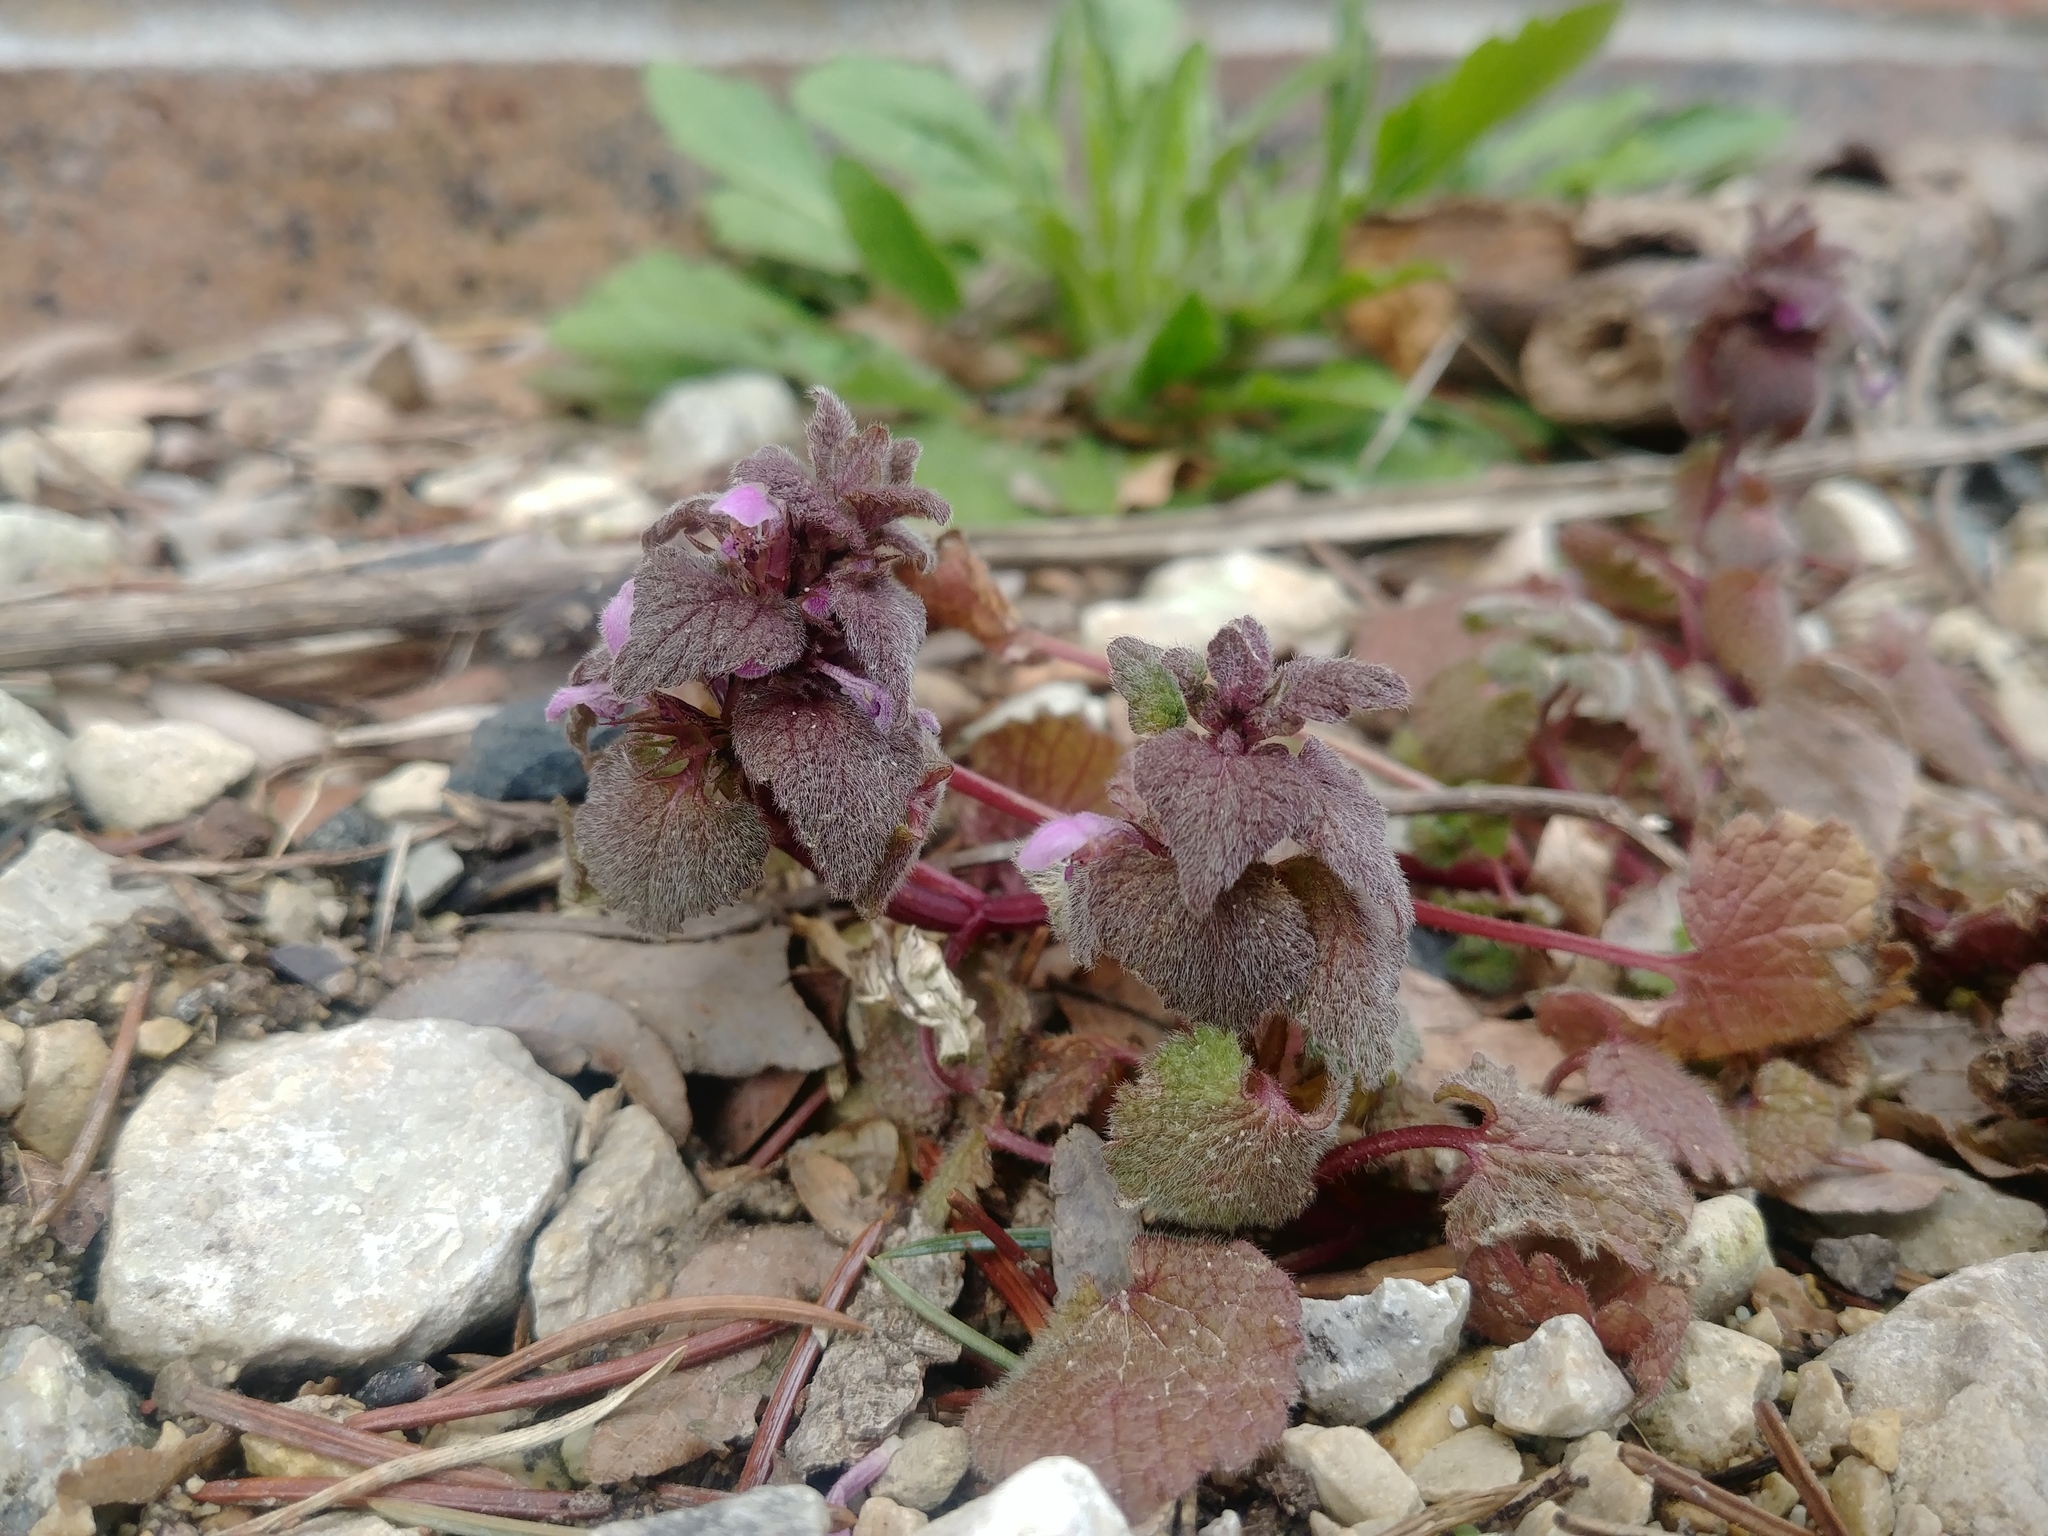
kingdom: Plantae
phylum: Tracheophyta
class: Magnoliopsida
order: Lamiales
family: Lamiaceae
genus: Lamium
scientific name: Lamium purpureum
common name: Red dead-nettle
